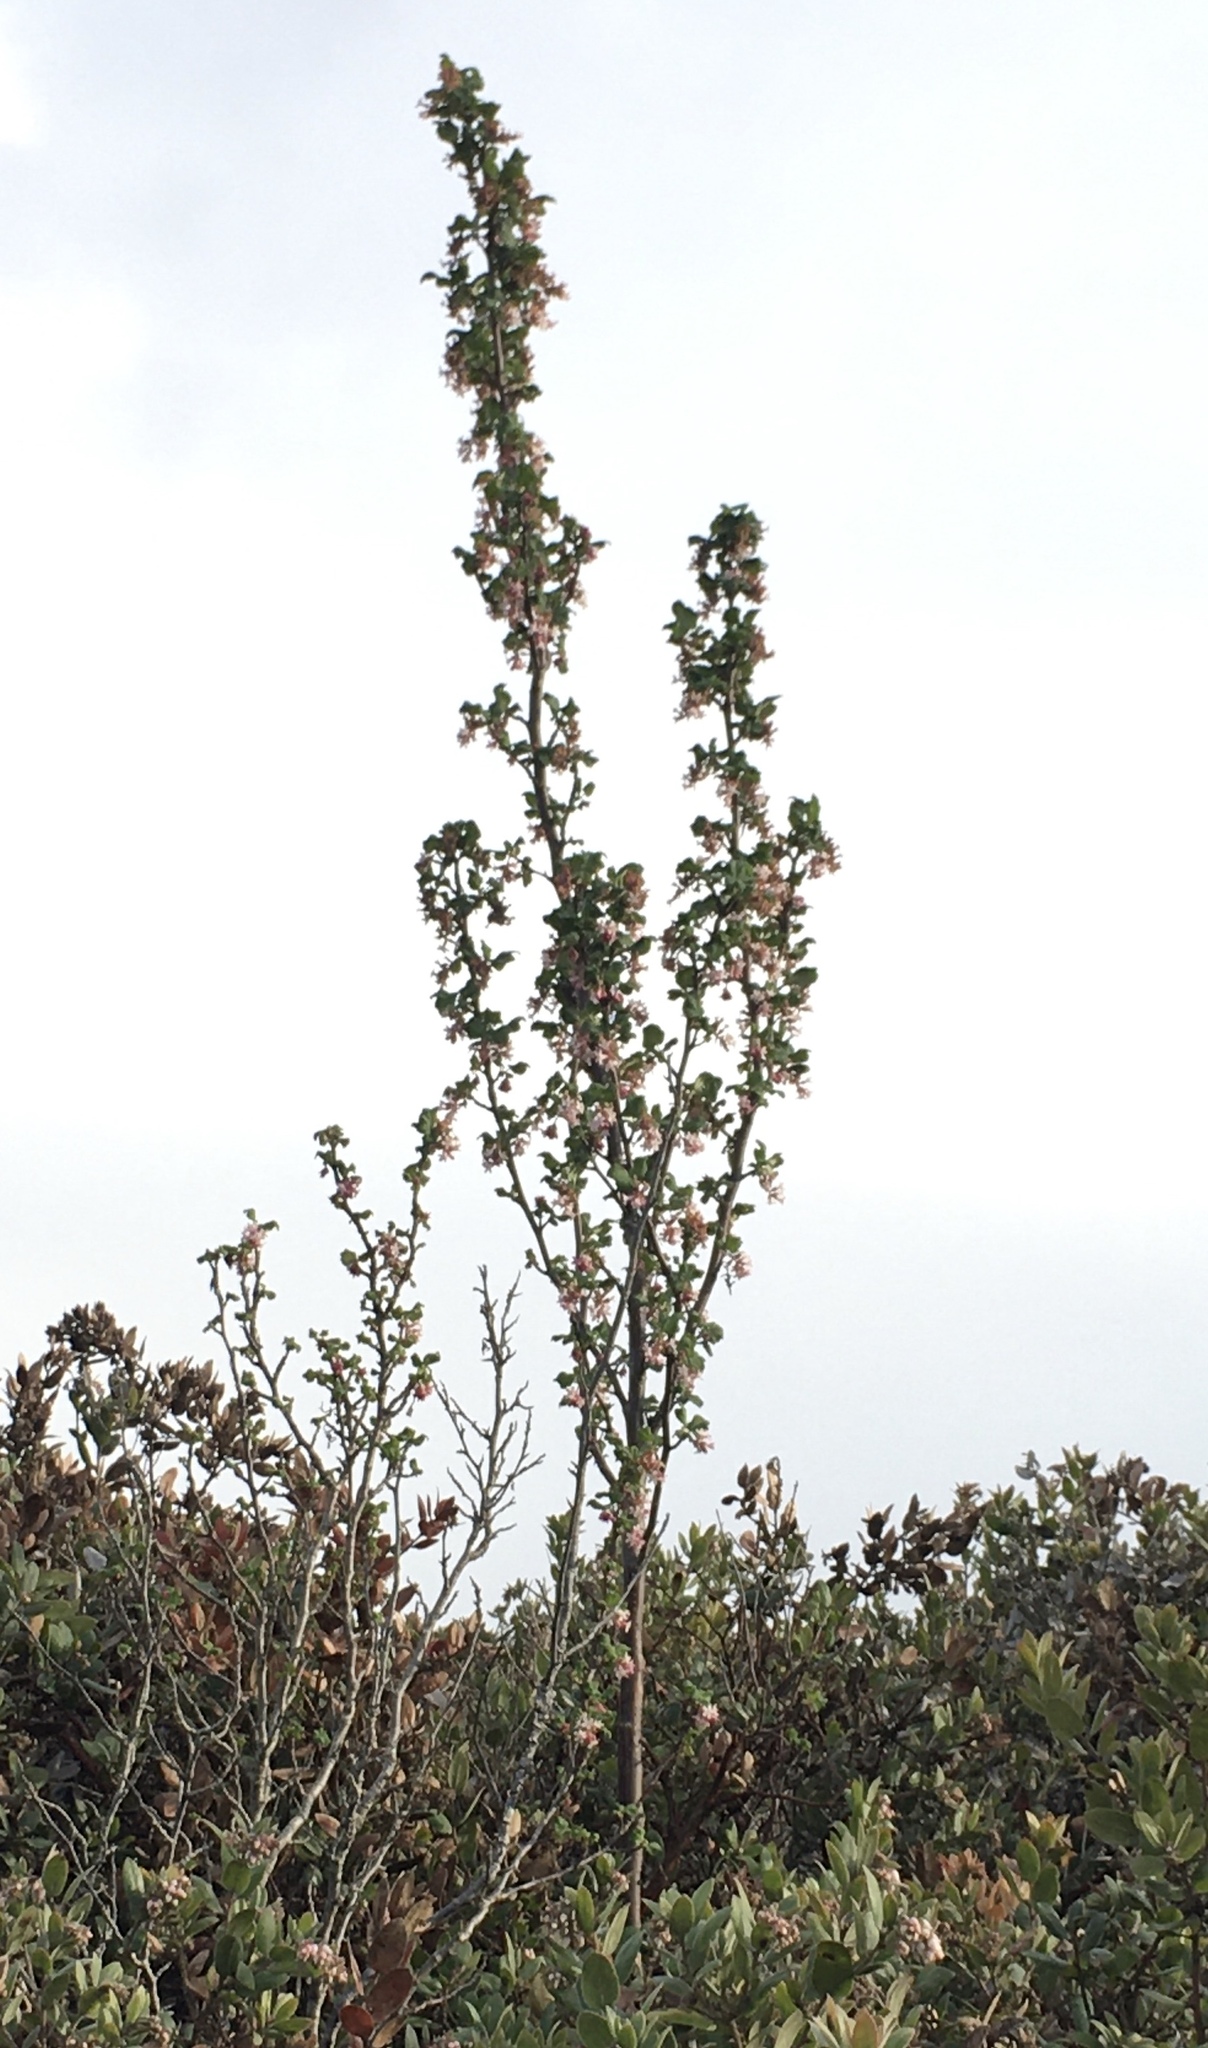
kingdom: Plantae
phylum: Tracheophyta
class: Magnoliopsida
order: Saxifragales
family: Grossulariaceae
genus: Ribes
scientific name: Ribes malvaceum
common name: Chaparral currant
